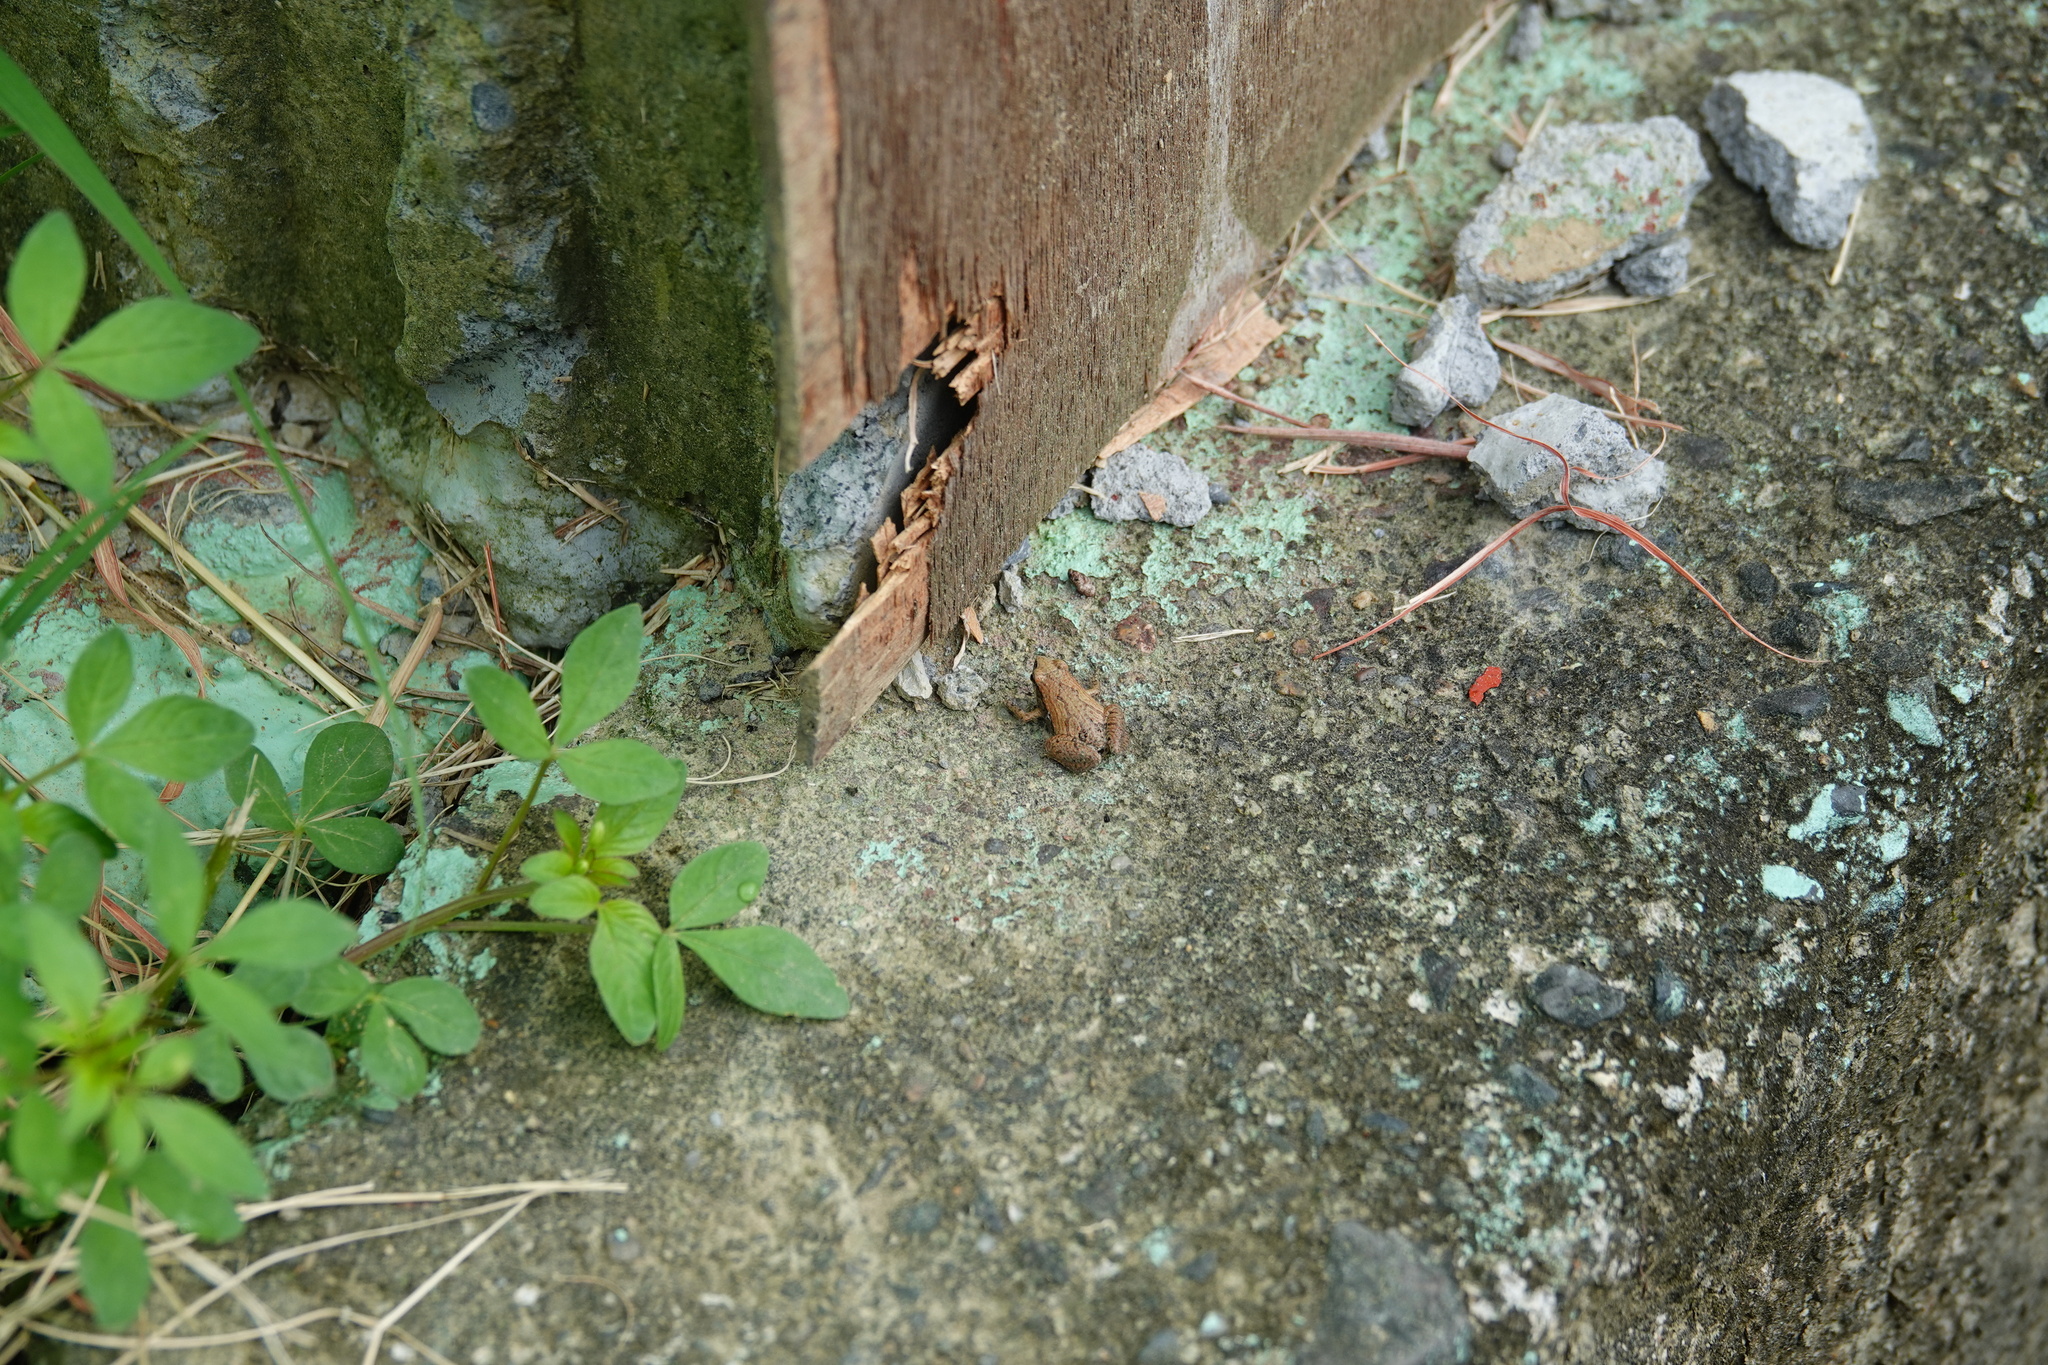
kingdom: Animalia
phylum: Chordata
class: Amphibia
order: Anura
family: Microhylidae
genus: Microhyla
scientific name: Microhyla fissipes
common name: Ornate narrow-mouthed frog
